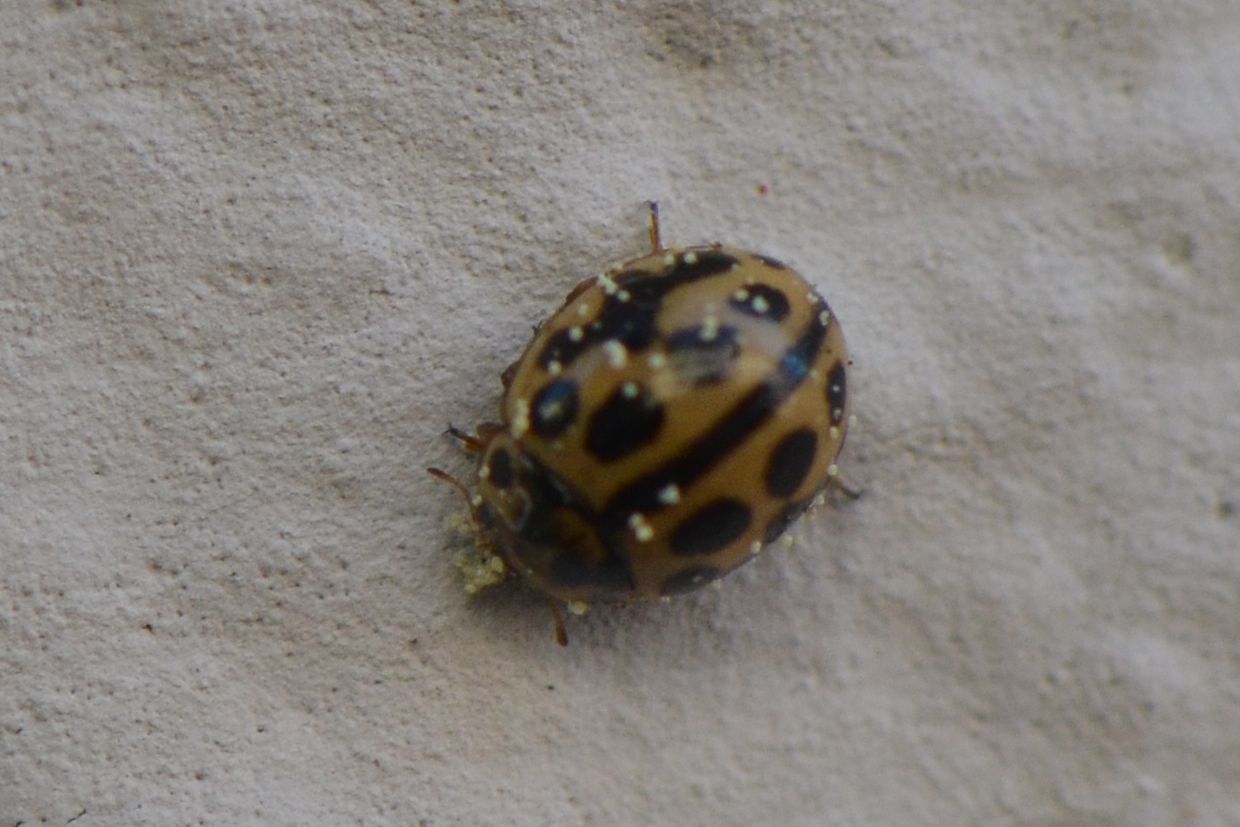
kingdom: Animalia
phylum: Arthropoda
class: Insecta
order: Coleoptera
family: Coccinellidae
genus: Tytthaspis
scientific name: Tytthaspis sedecimpunctata
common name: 16-spot ladybird
